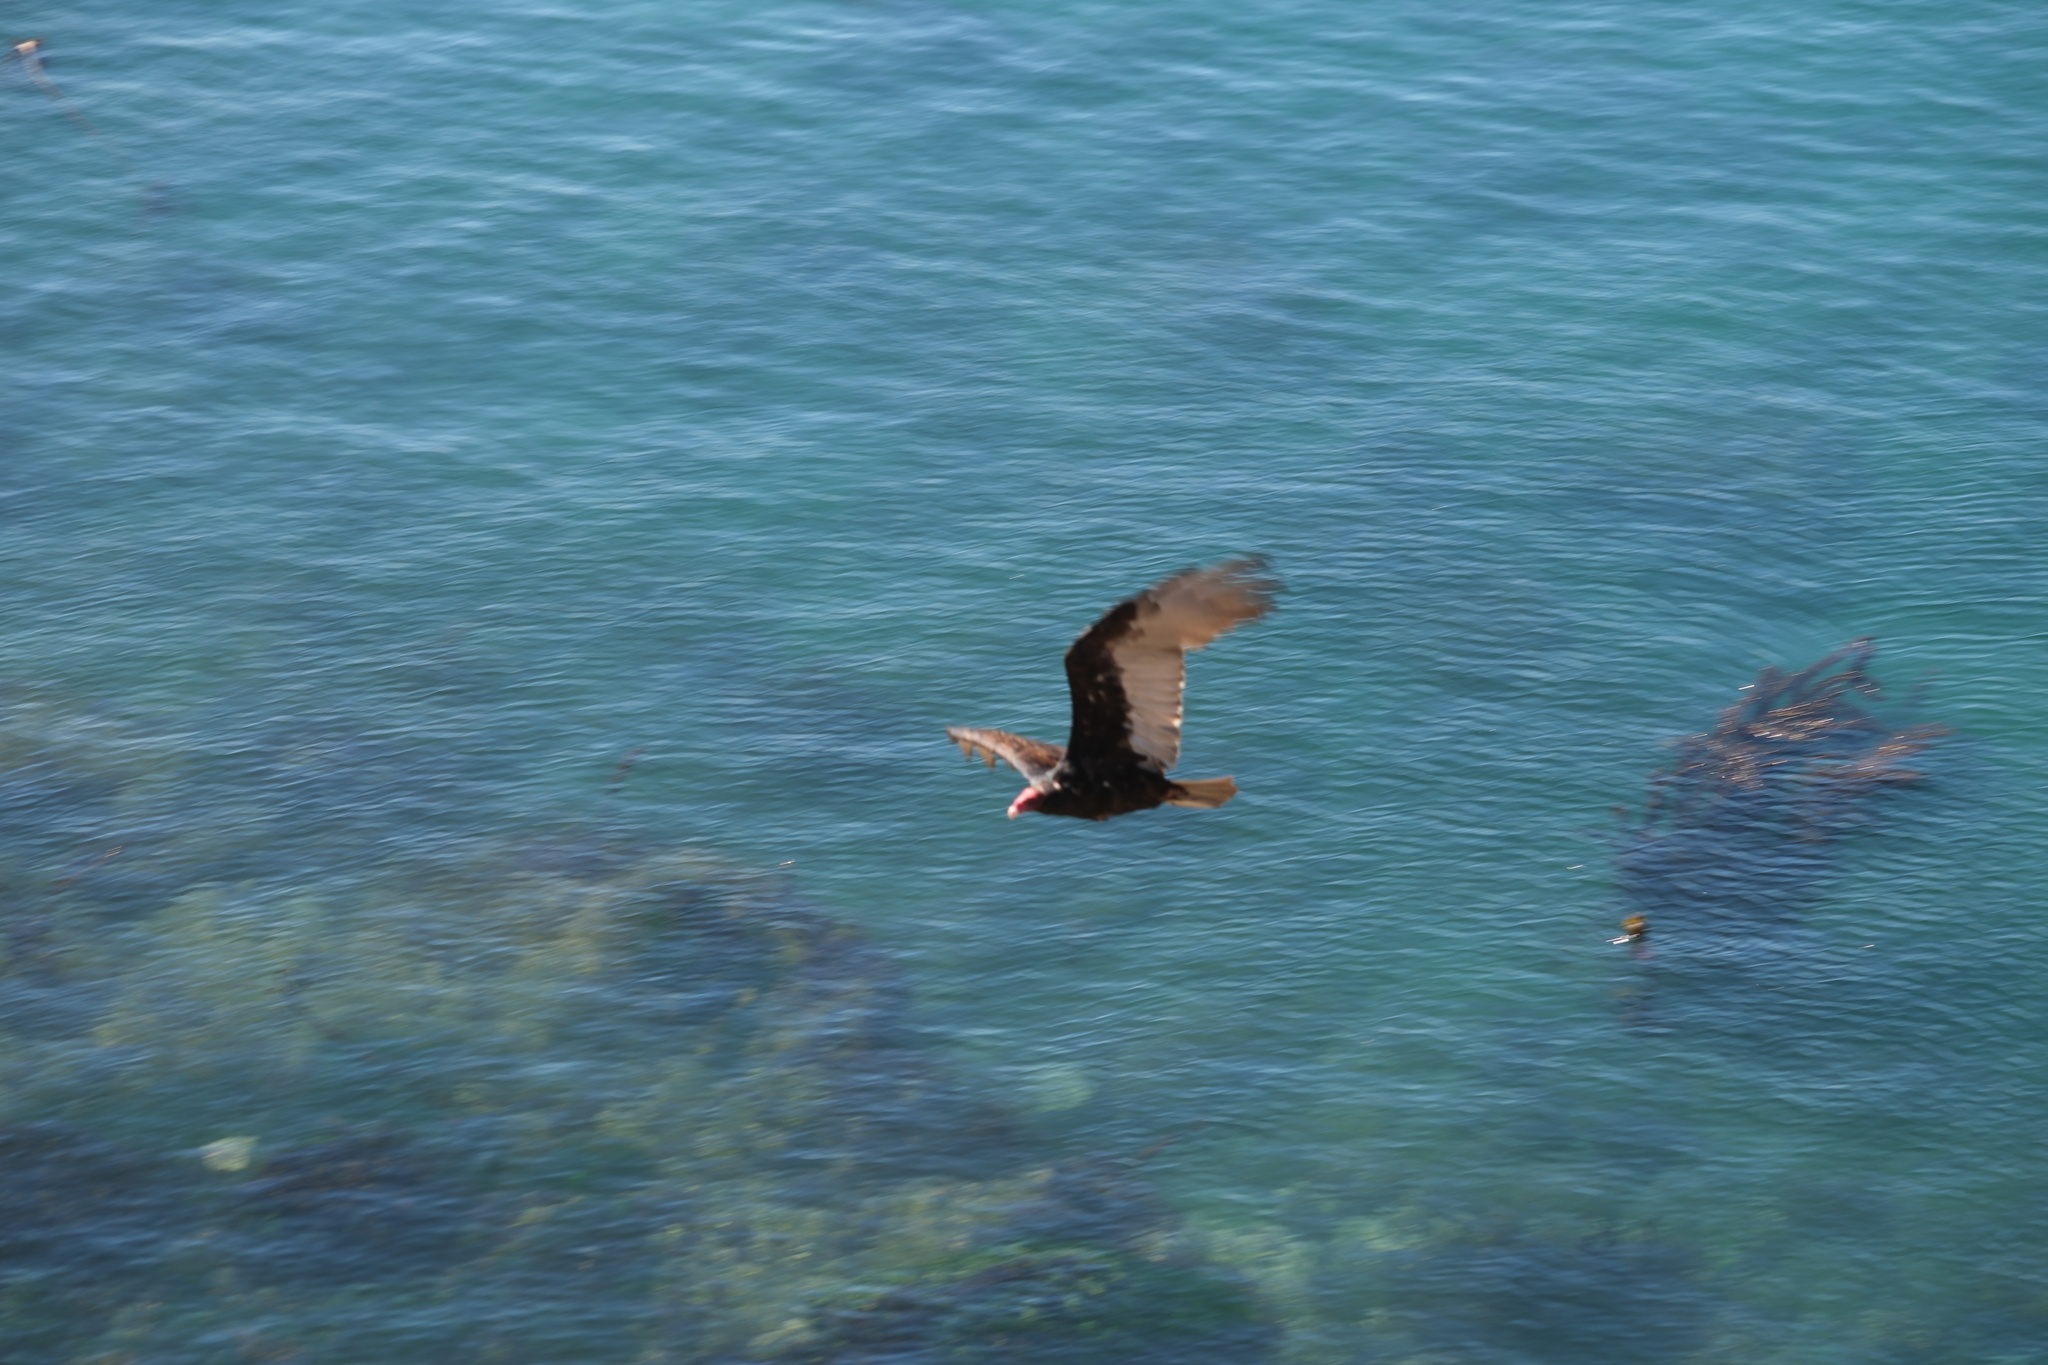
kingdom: Animalia
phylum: Chordata
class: Aves
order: Accipitriformes
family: Cathartidae
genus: Cathartes
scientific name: Cathartes aura
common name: Turkey vulture
